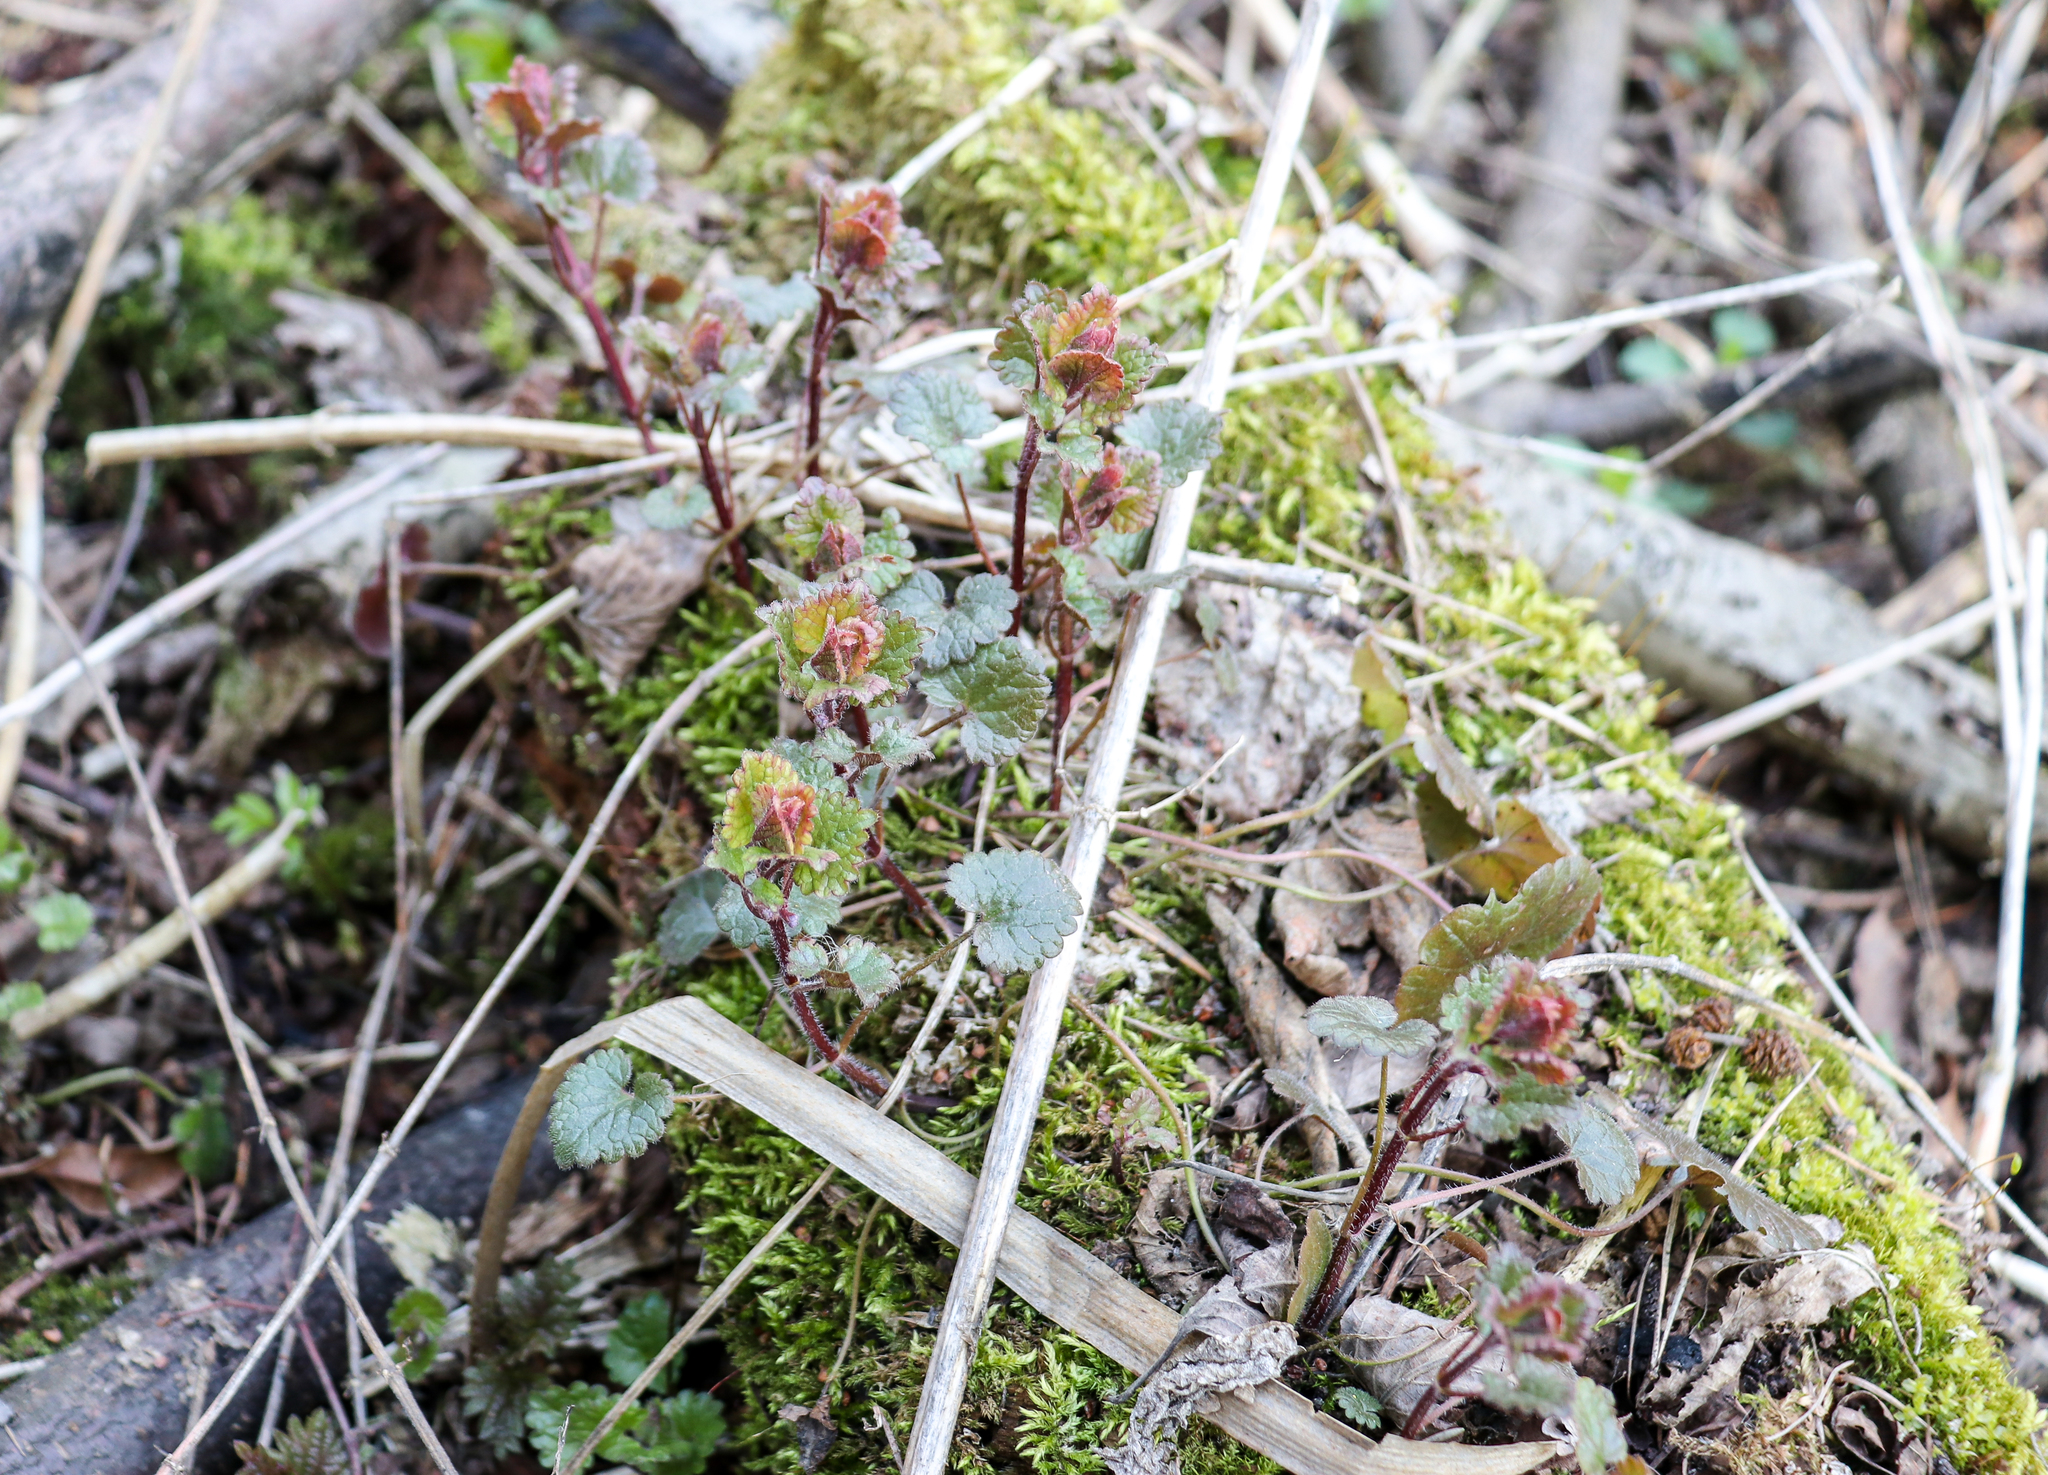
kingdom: Plantae
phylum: Tracheophyta
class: Magnoliopsida
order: Lamiales
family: Lamiaceae
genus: Glechoma
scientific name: Glechoma hederacea
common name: Ground ivy
